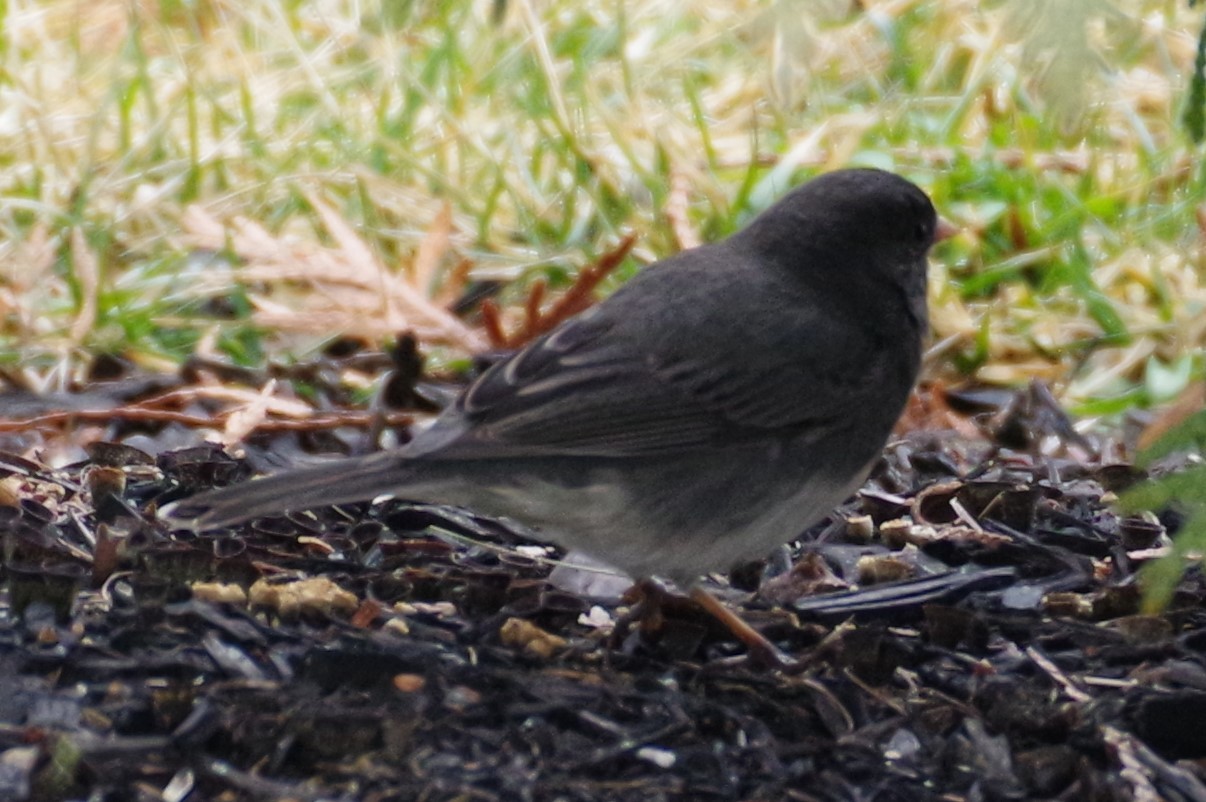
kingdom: Animalia
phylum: Chordata
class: Aves
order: Passeriformes
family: Passerellidae
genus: Junco
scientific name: Junco hyemalis
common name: Dark-eyed junco
